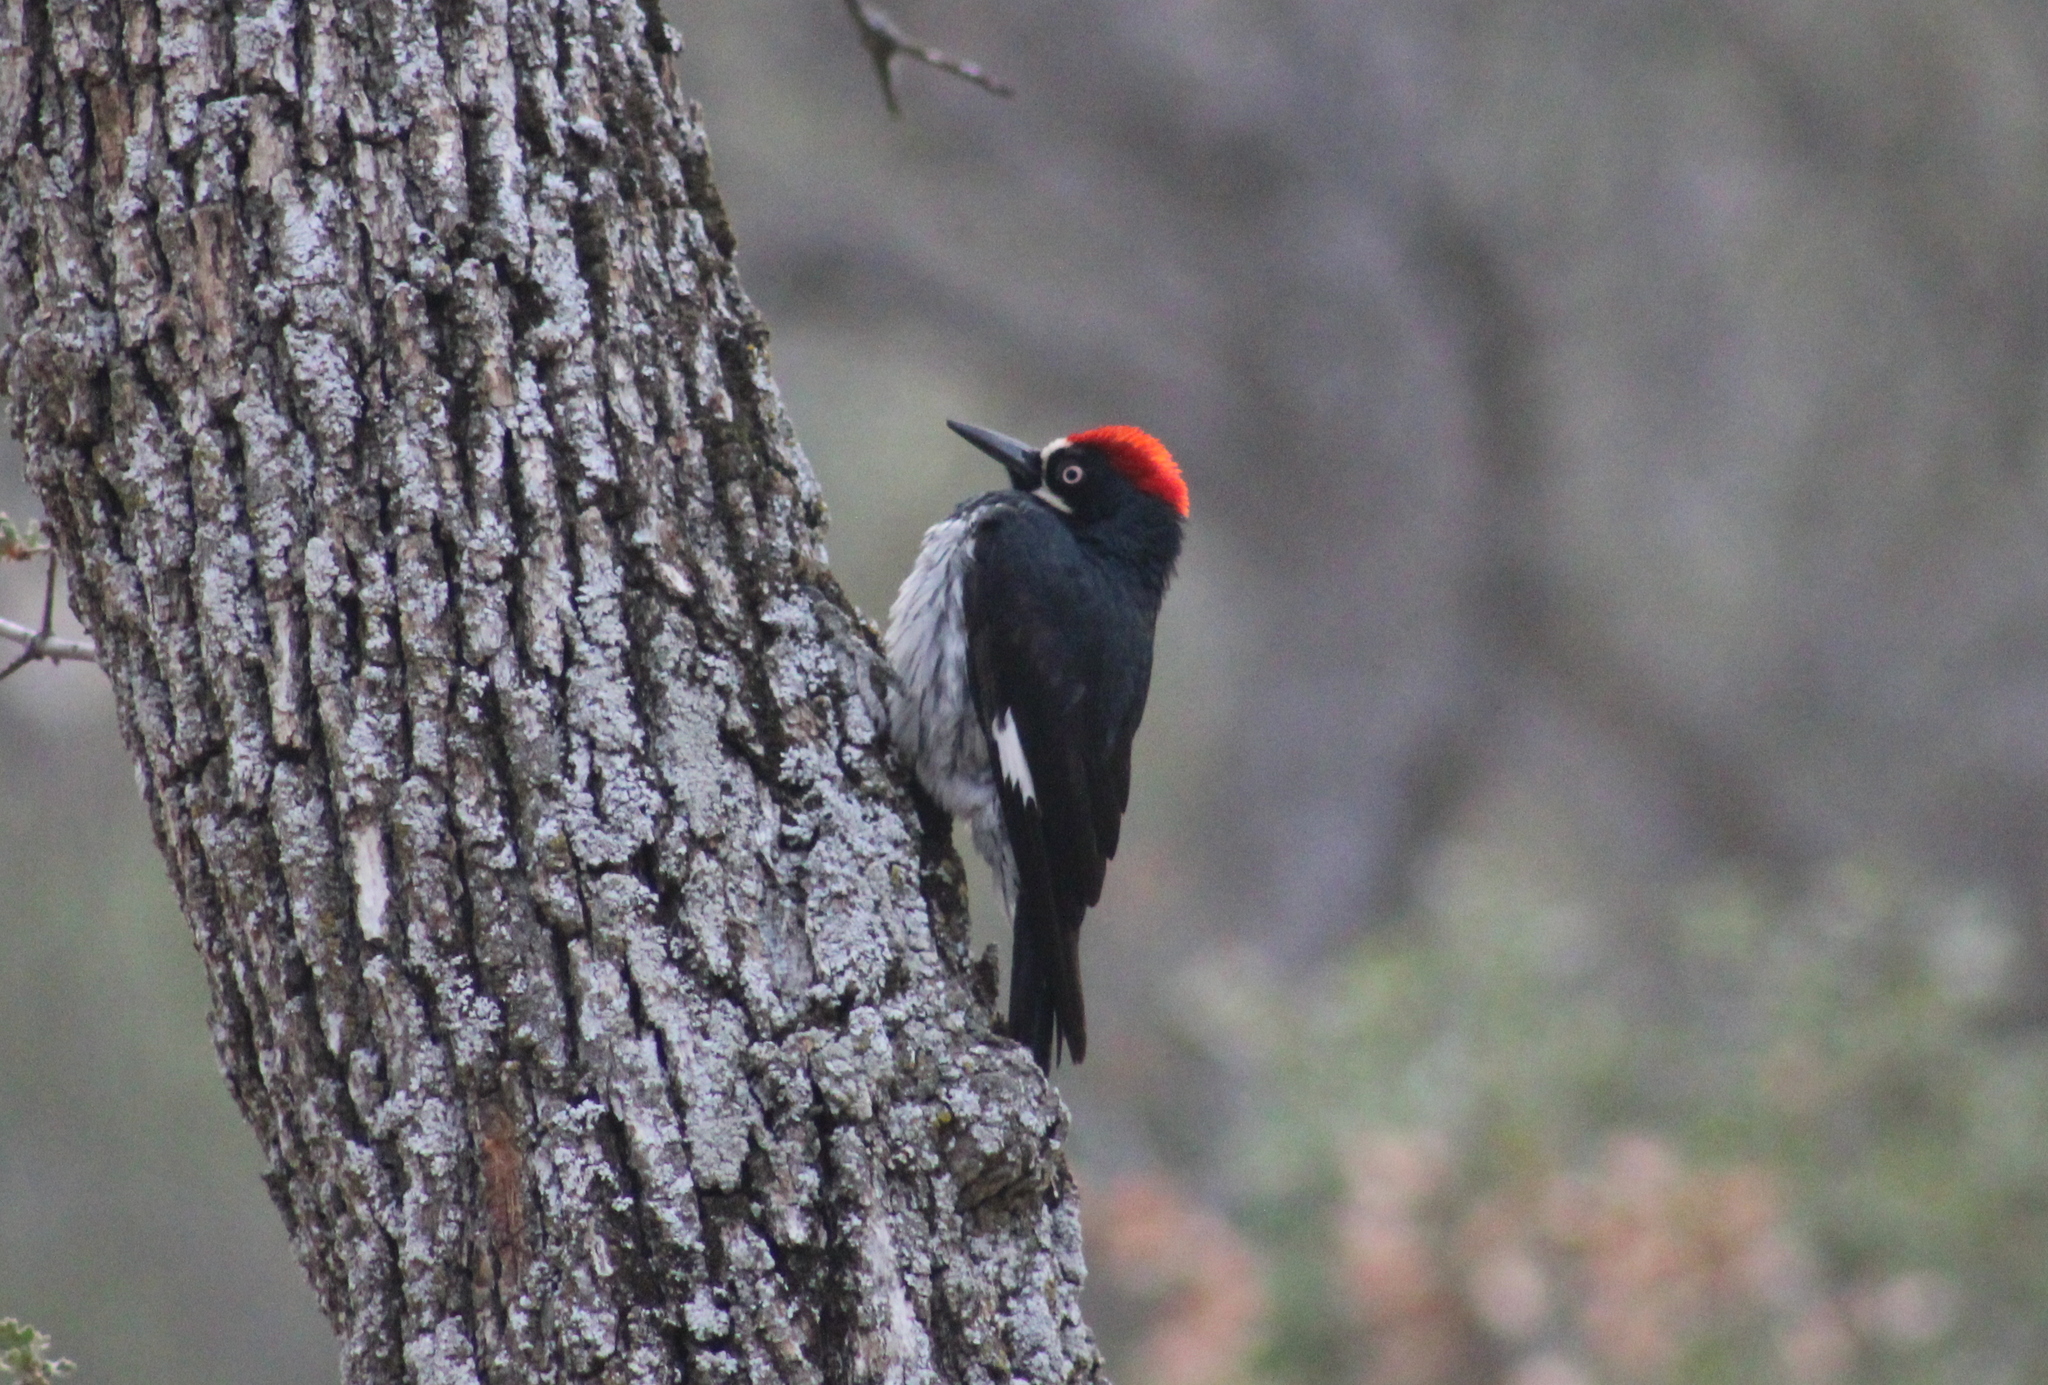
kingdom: Animalia
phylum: Chordata
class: Aves
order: Piciformes
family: Picidae
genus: Melanerpes
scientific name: Melanerpes formicivorus
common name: Acorn woodpecker
